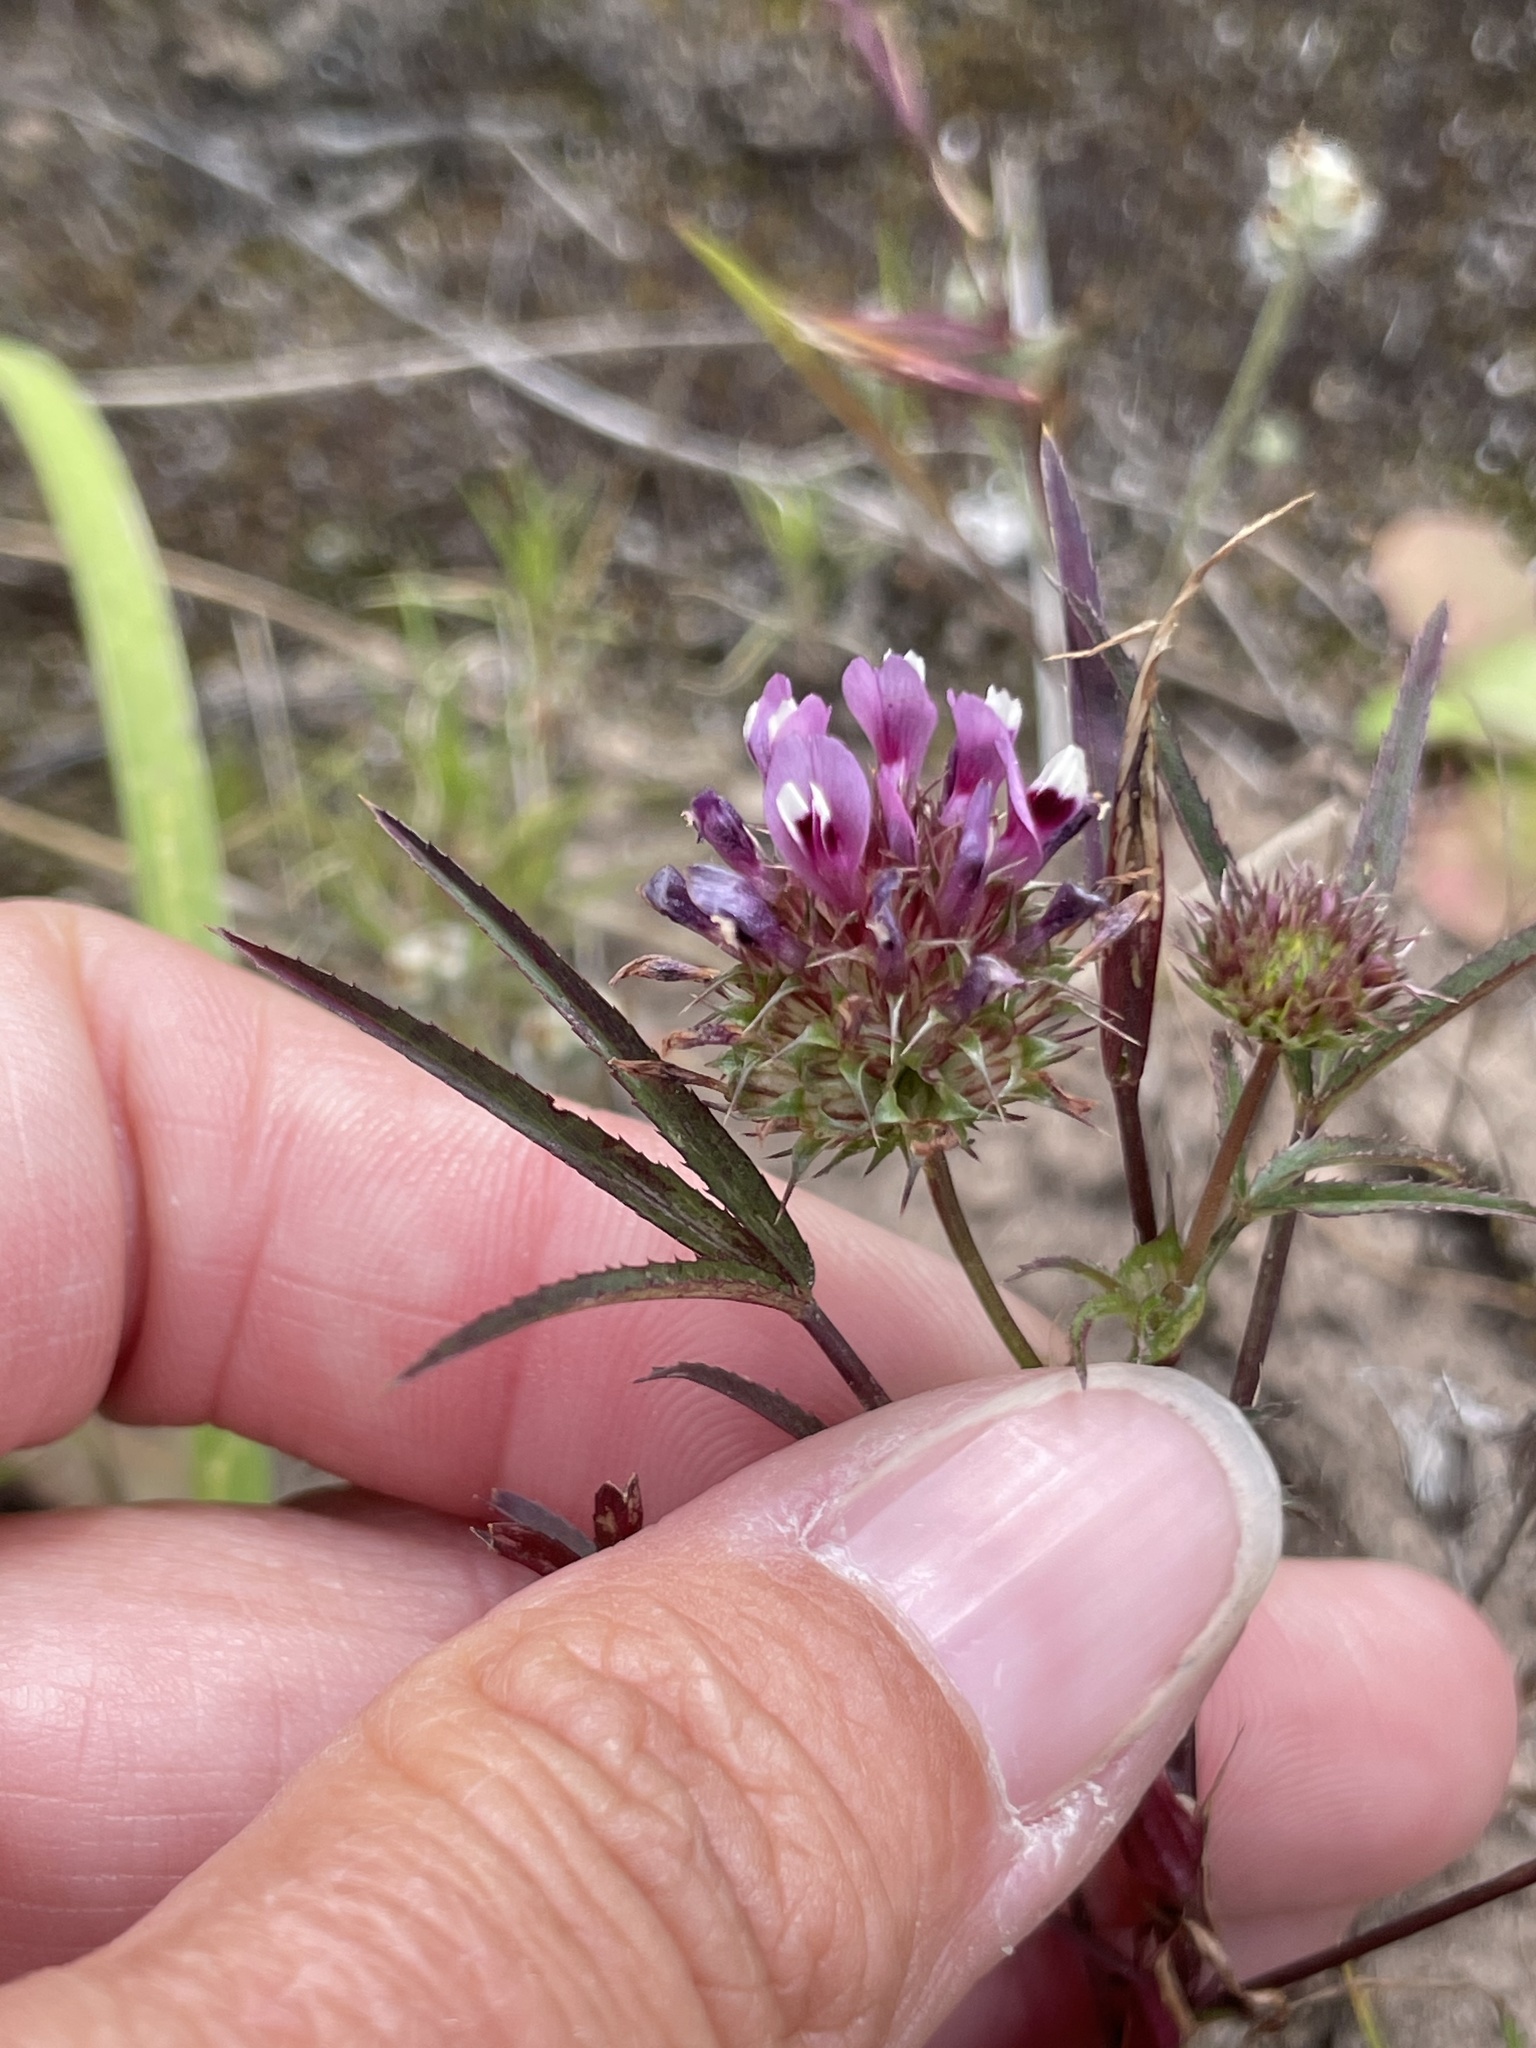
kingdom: Plantae
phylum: Tracheophyta
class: Magnoliopsida
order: Fabales
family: Fabaceae
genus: Trifolium
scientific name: Trifolium willdenovii
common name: Tomcat clover
